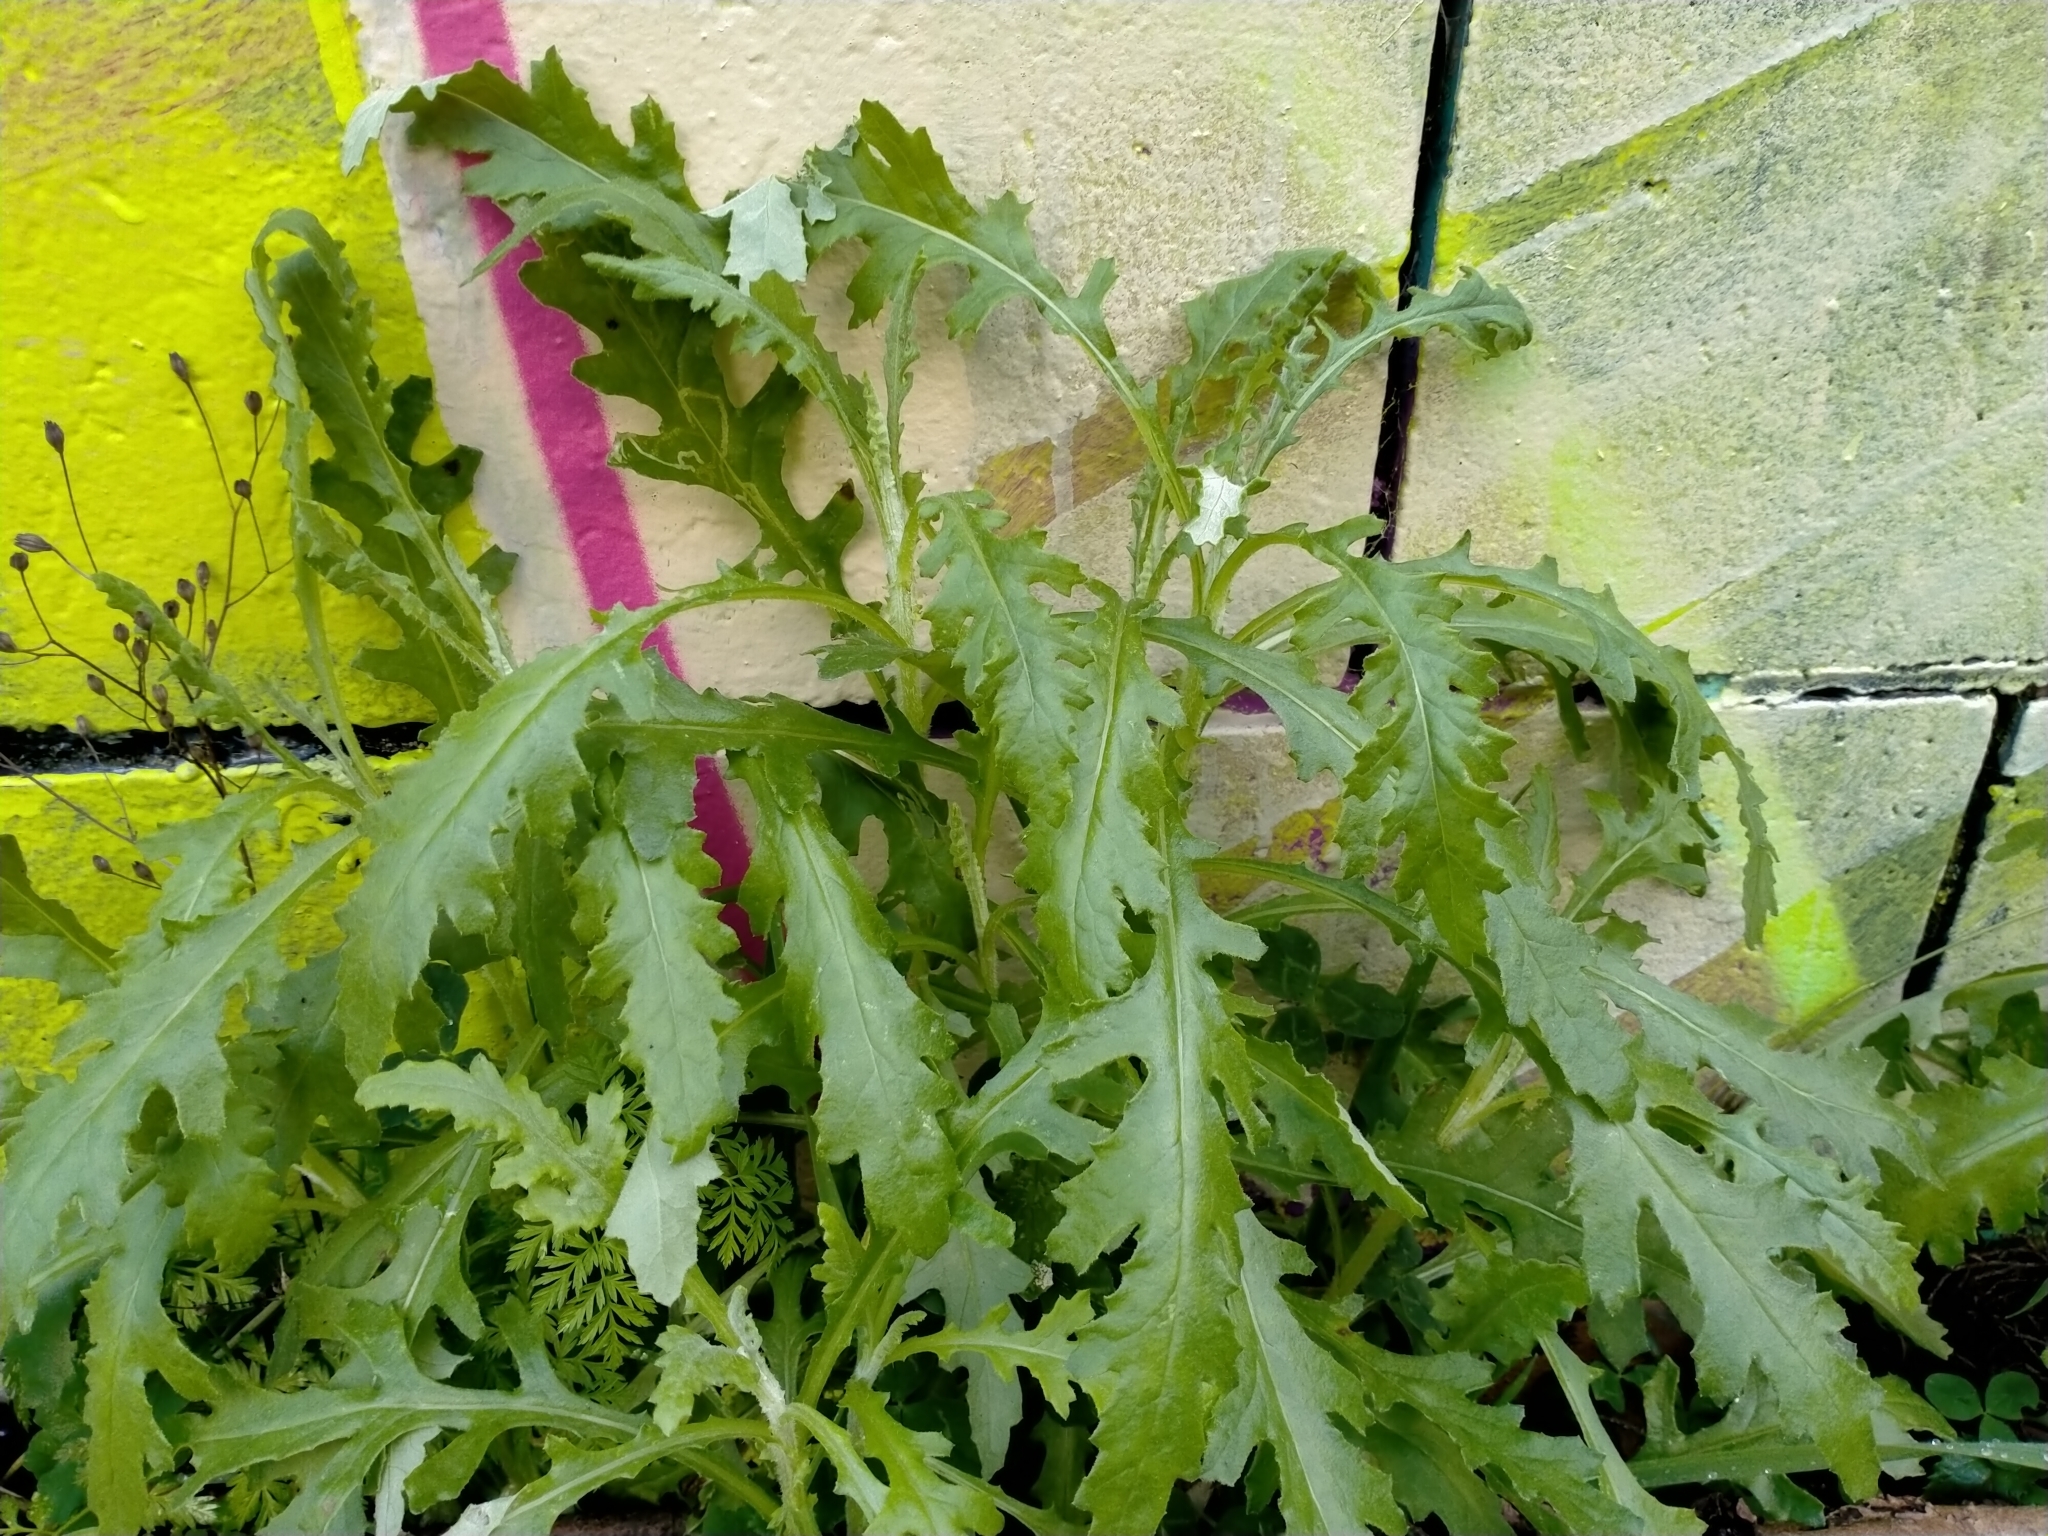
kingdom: Plantae
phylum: Tracheophyta
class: Magnoliopsida
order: Asterales
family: Asteraceae
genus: Senecio
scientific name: Senecio glomeratus
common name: Cutleaf burnweed
